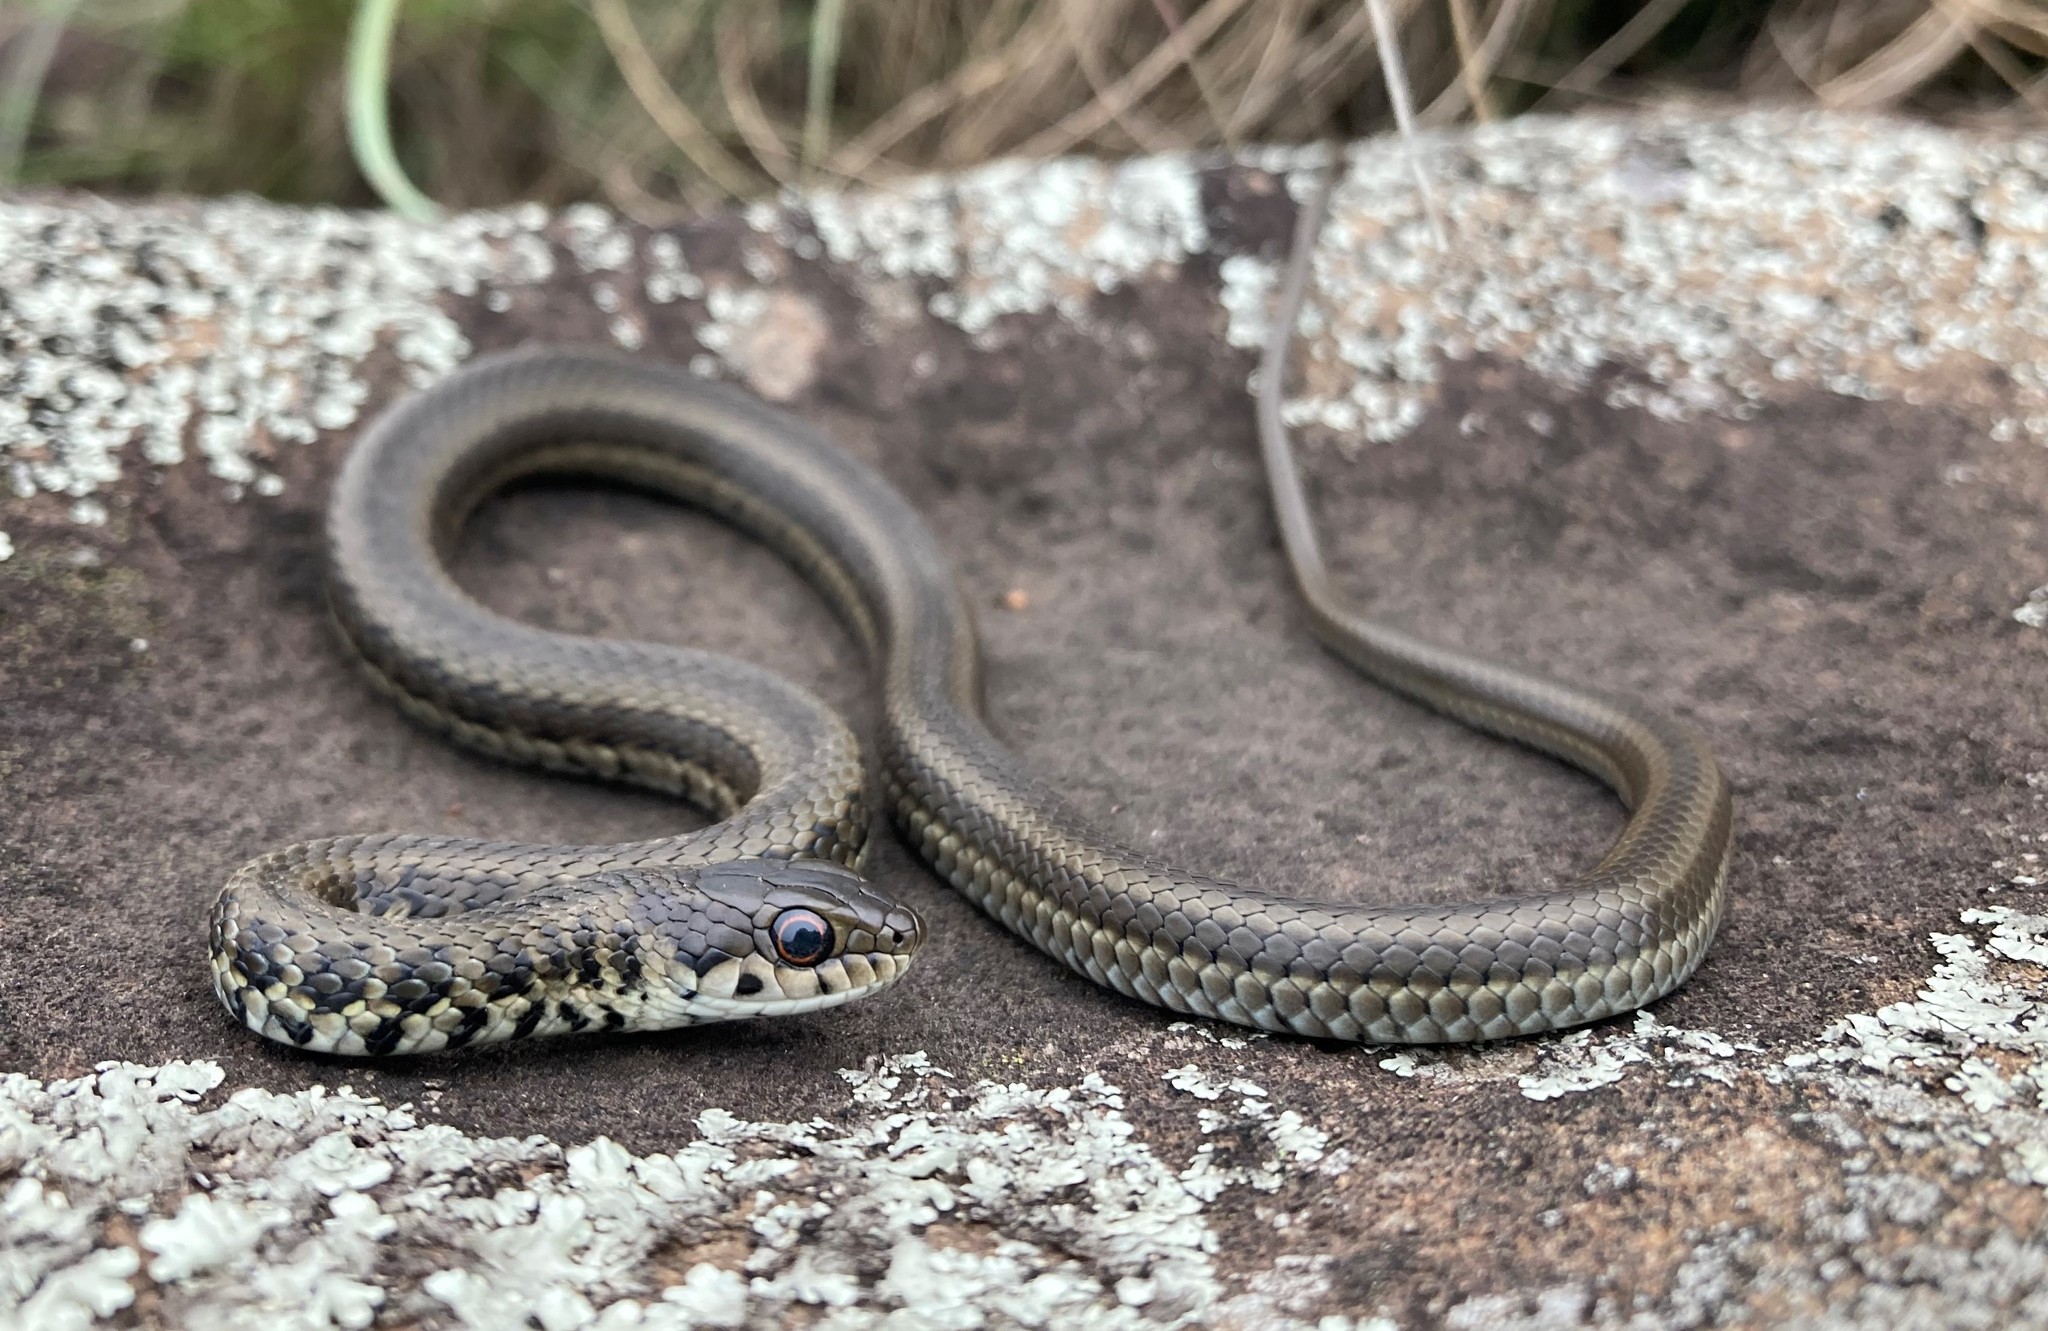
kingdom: Animalia
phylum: Chordata
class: Squamata
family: Psammophiidae
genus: Psammophylax
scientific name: Psammophylax rhombeatus
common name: Rhombic skaapsteker
